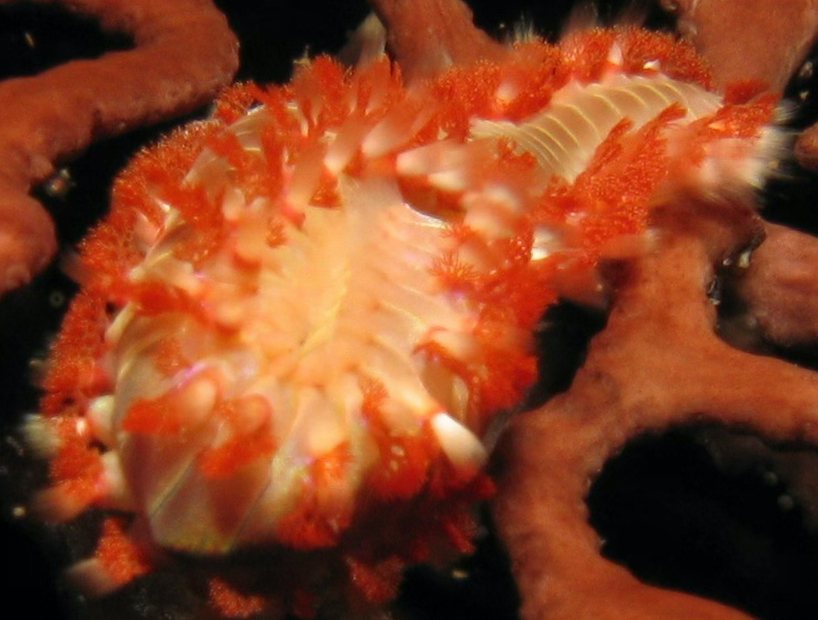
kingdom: Animalia
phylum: Annelida
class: Polychaeta
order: Amphinomida
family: Amphinomidae
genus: Hermodice
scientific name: Hermodice carunculata
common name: Bearded fireworm
